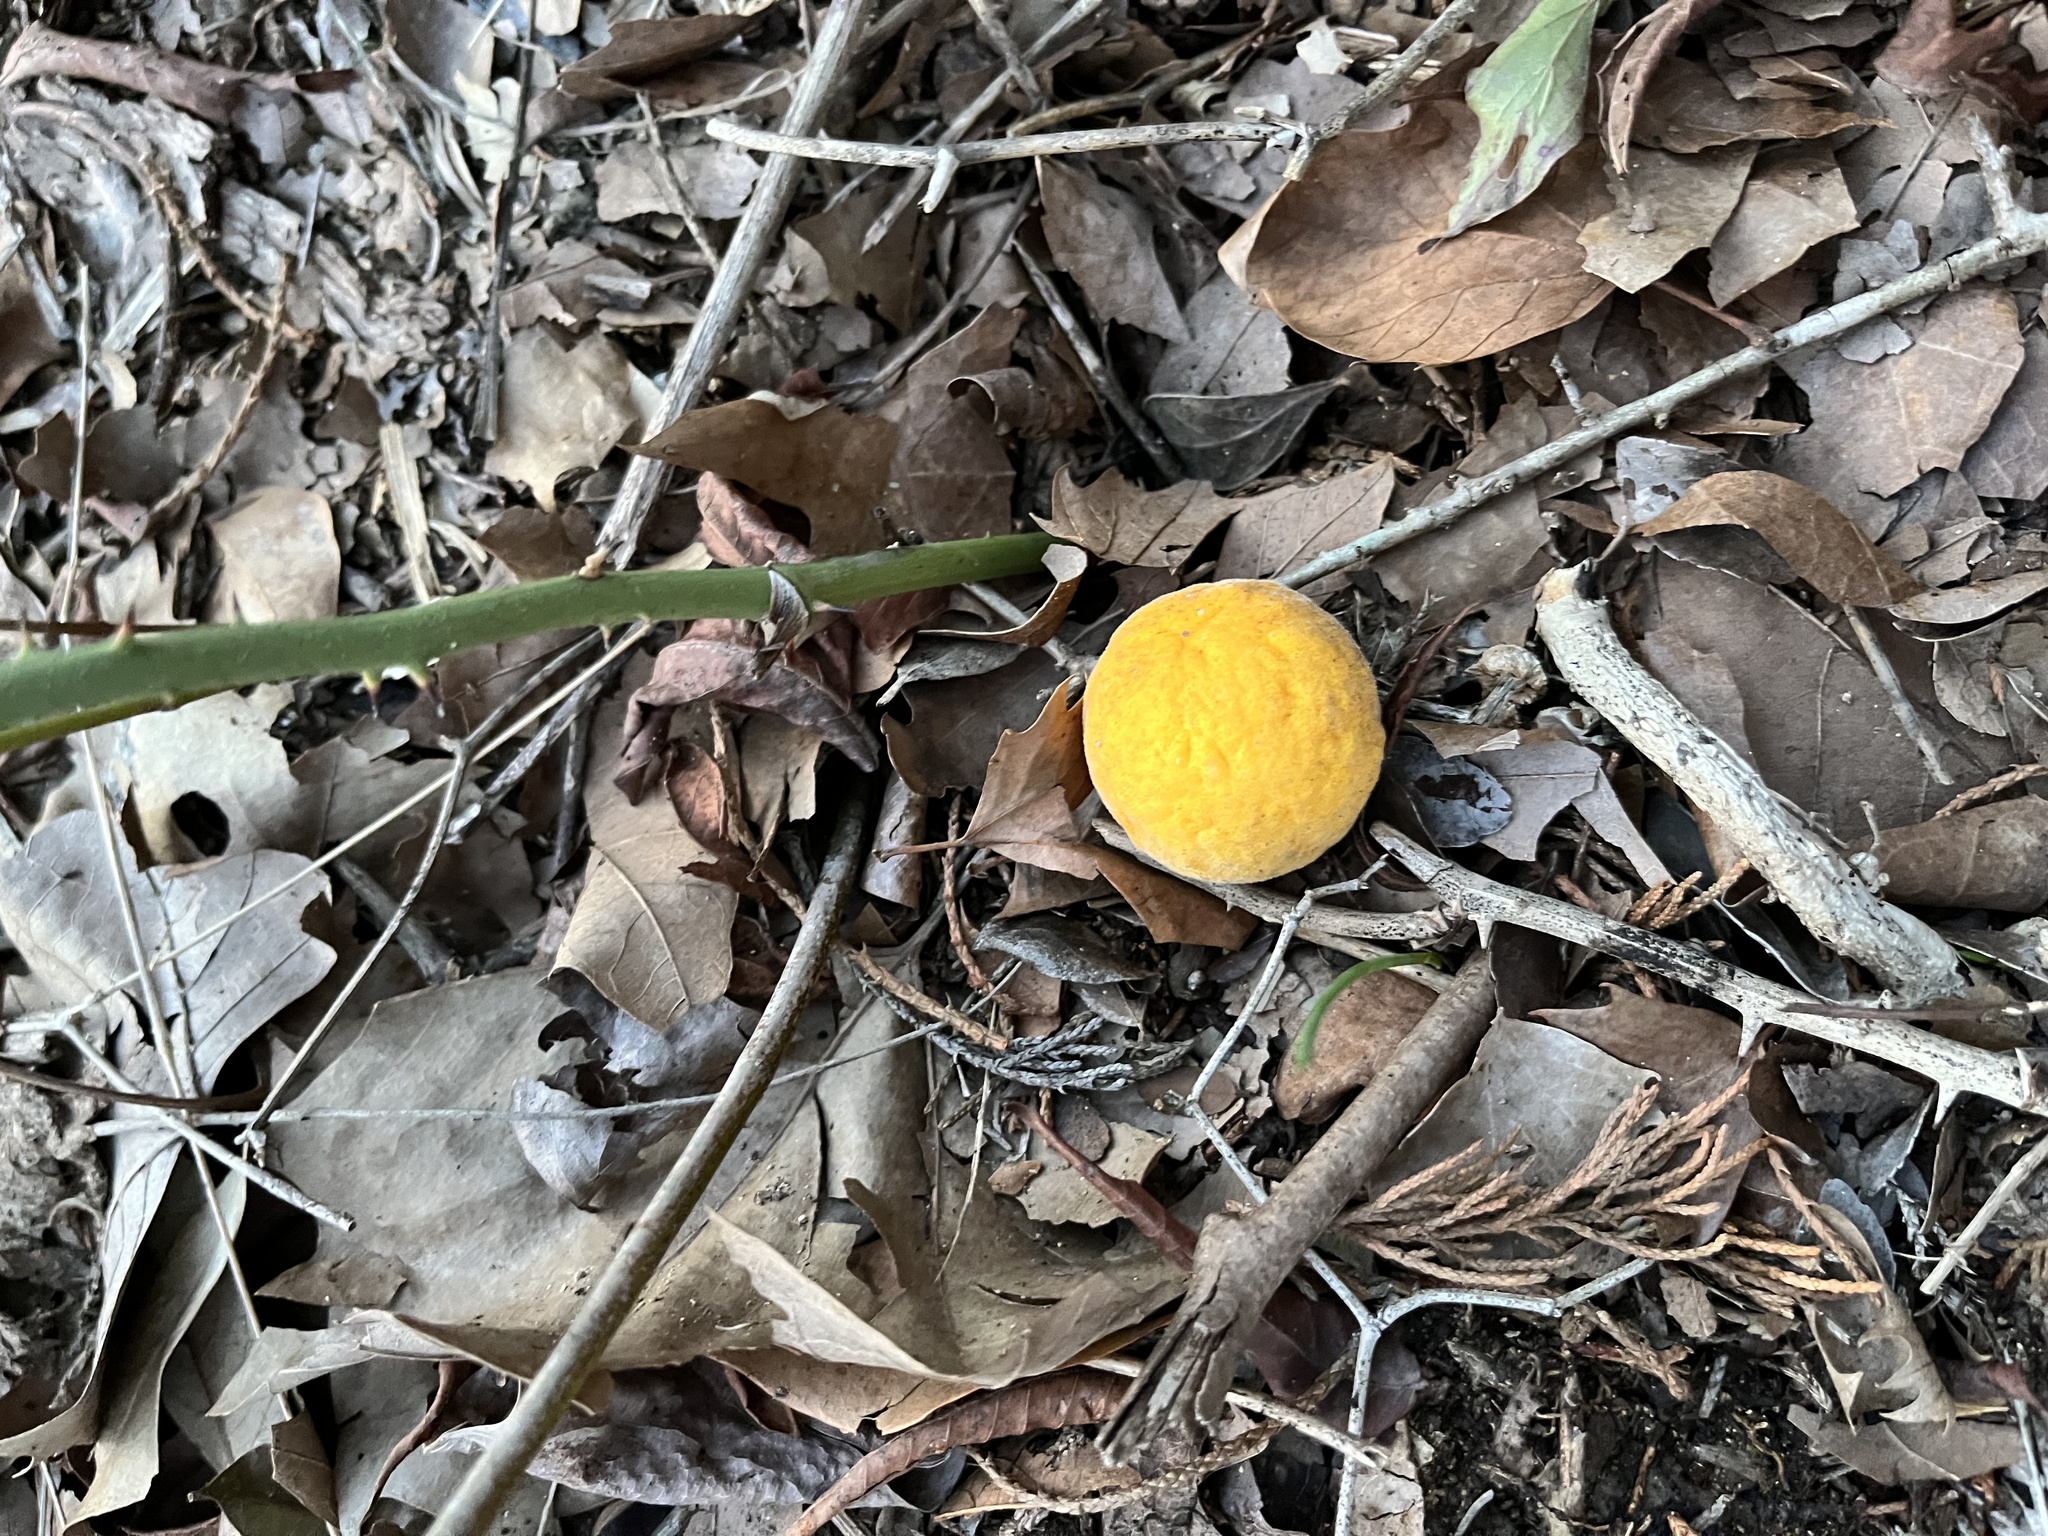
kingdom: Plantae
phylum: Tracheophyta
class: Magnoliopsida
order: Sapindales
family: Rutaceae
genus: Citrus
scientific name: Citrus trifoliata
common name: Japanese bitter-orange
